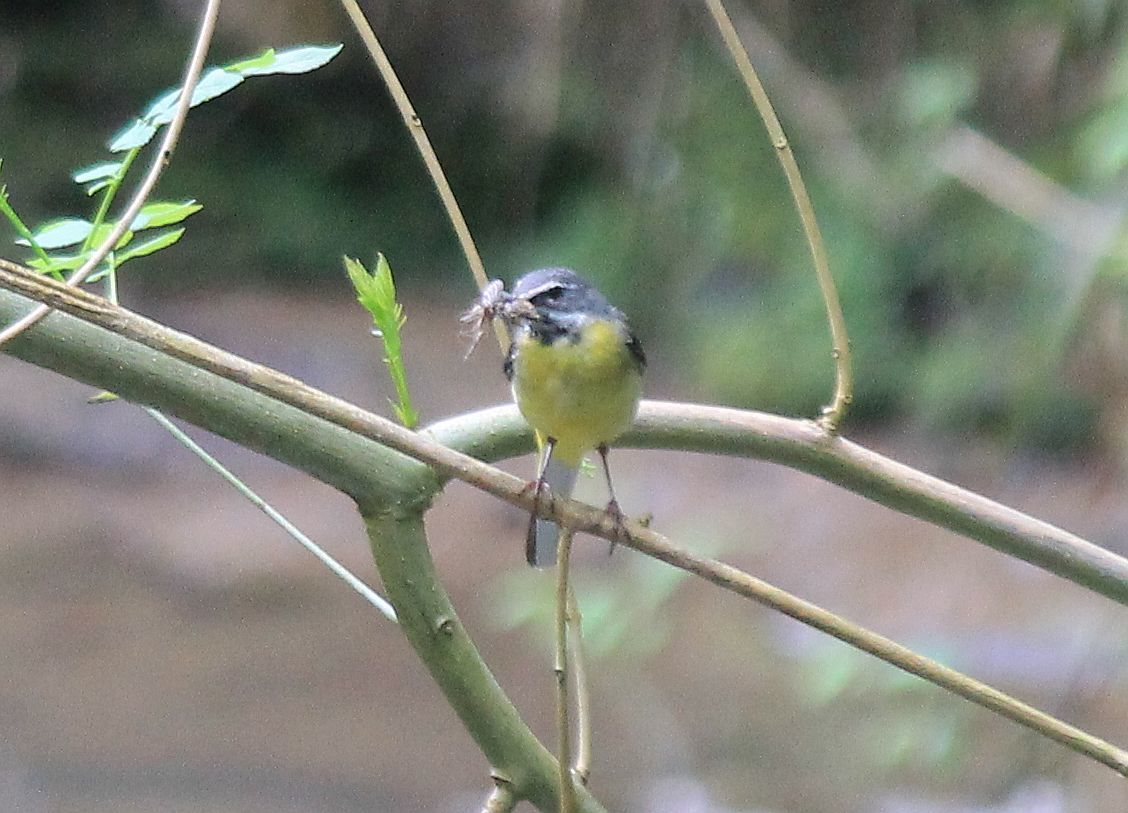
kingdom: Animalia
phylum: Chordata
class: Aves
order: Passeriformes
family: Motacillidae
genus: Motacilla
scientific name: Motacilla cinerea
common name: Grey wagtail
